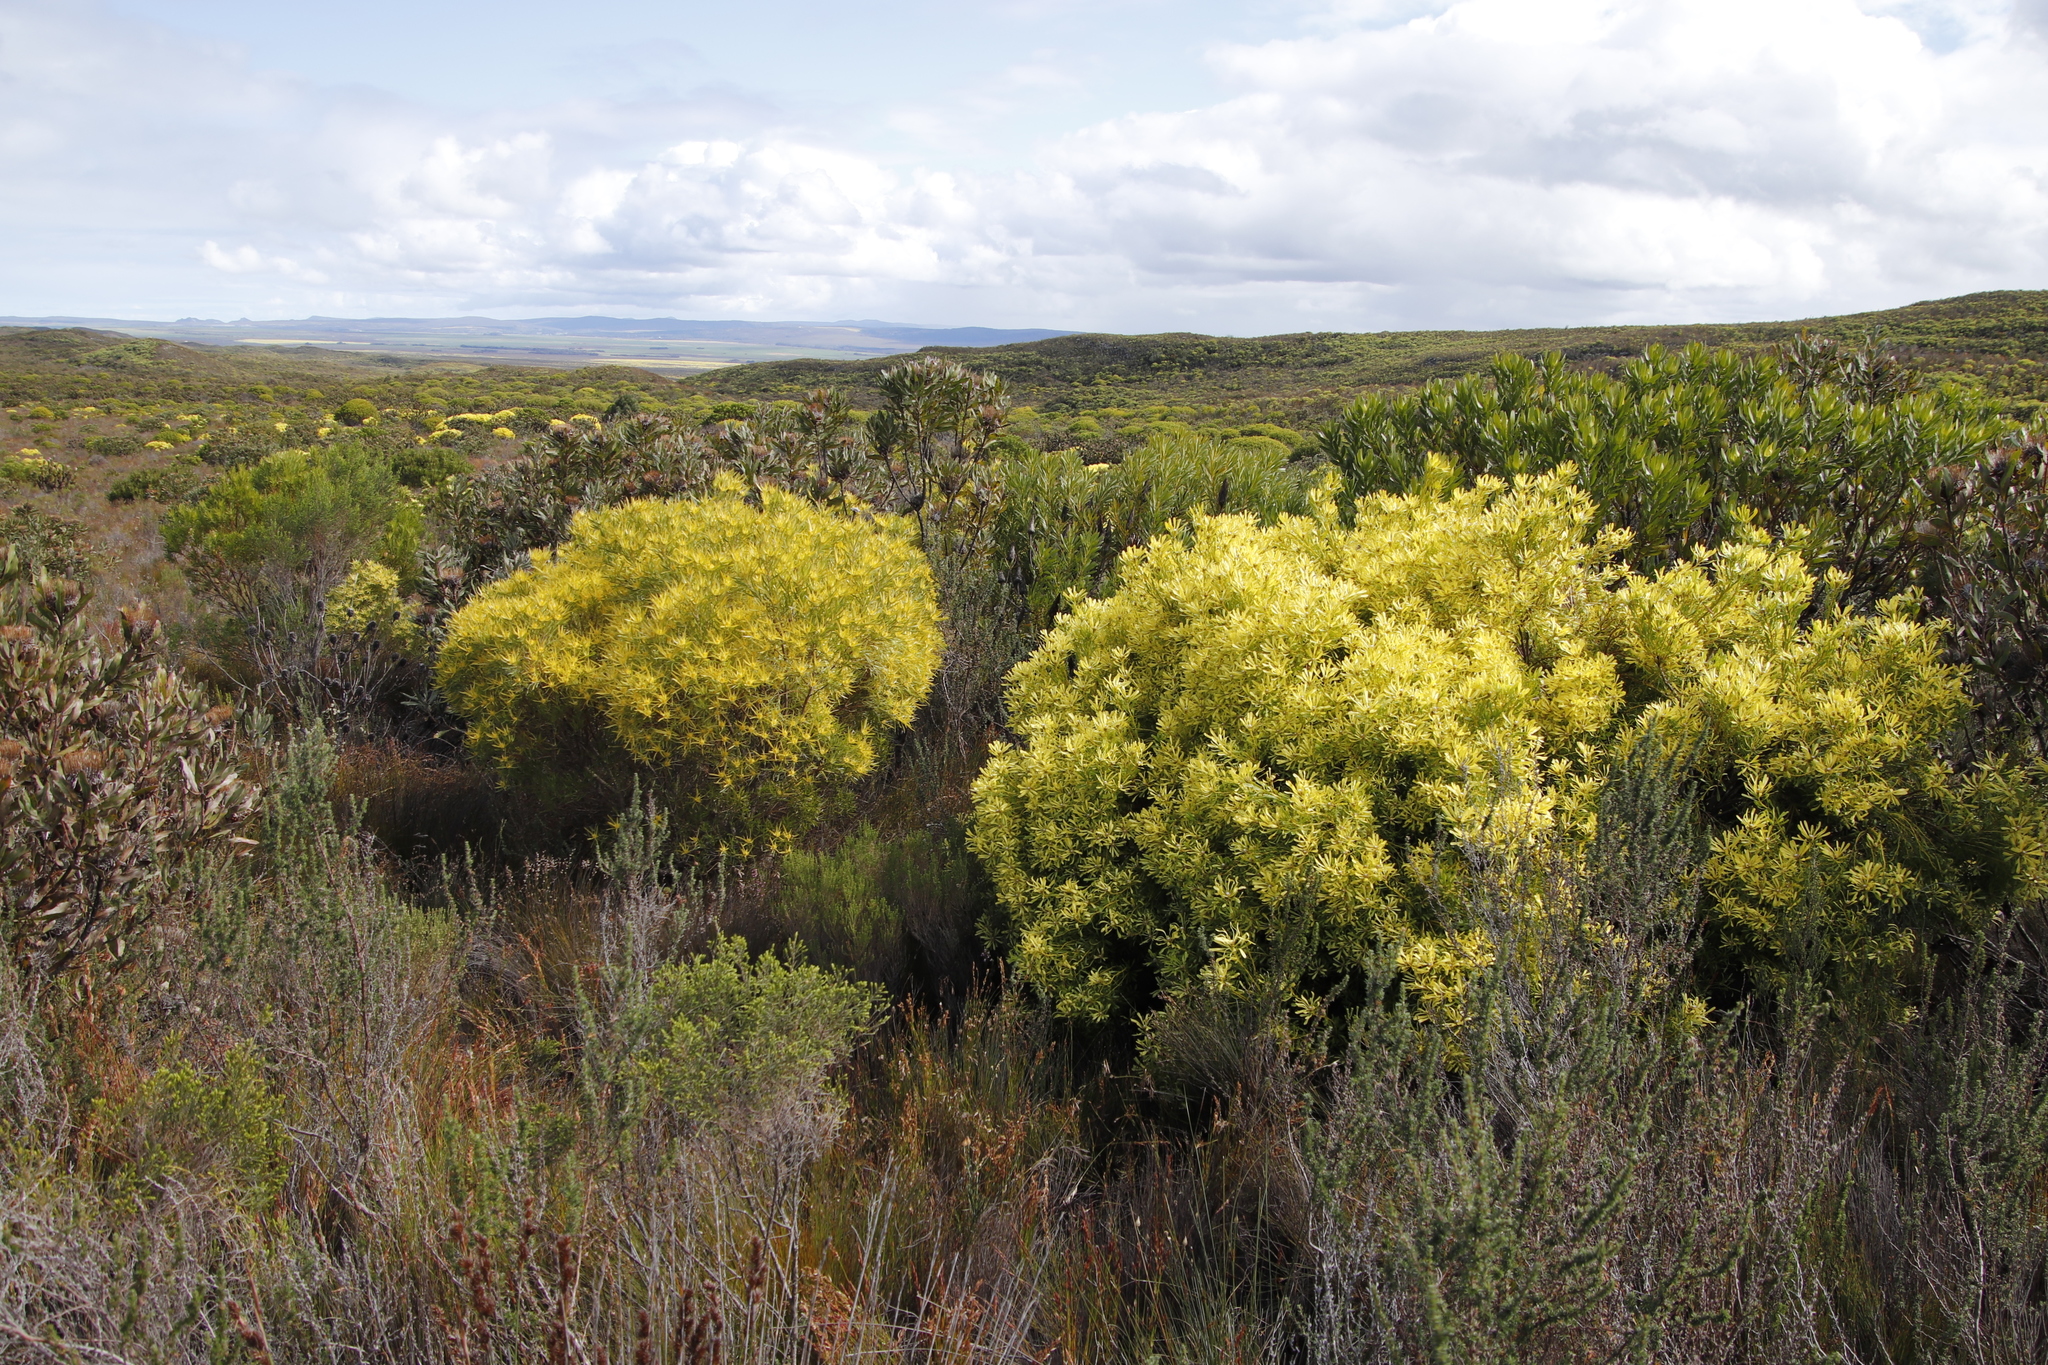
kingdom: Plantae
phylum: Tracheophyta
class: Magnoliopsida
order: Proteales
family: Proteaceae
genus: Leucadendron
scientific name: Leucadendron platyspermum
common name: Plate-seed conebush
